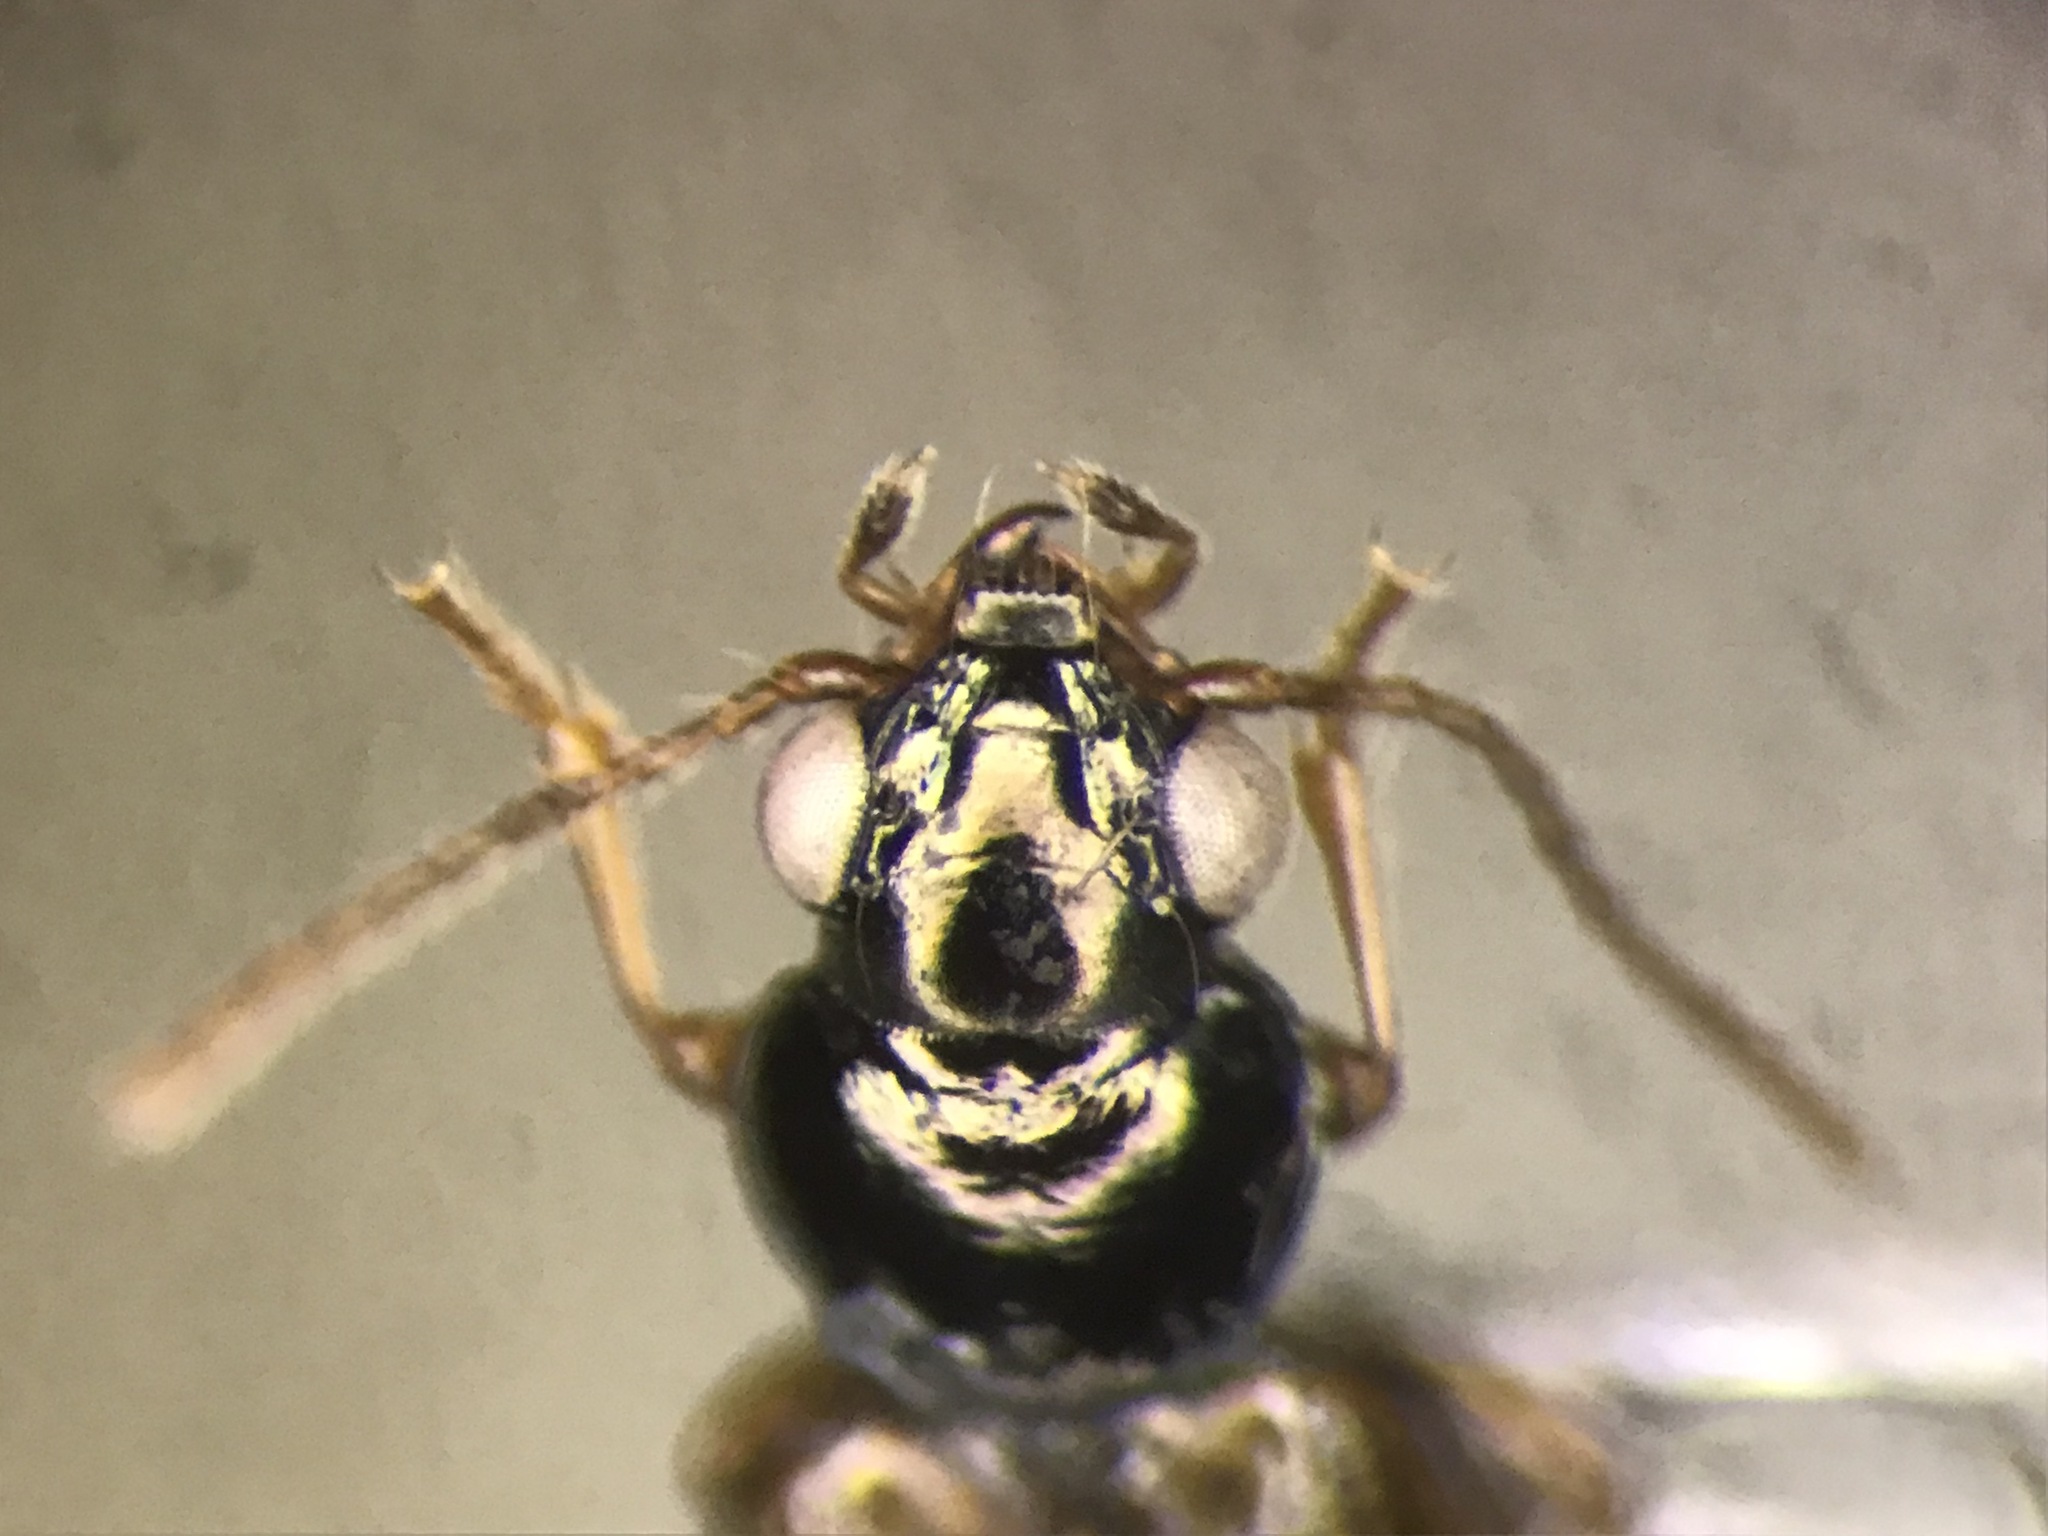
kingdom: Animalia
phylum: Arthropoda
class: Insecta
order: Coleoptera
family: Carabidae
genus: Bembidion
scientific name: Bembidion impotens
